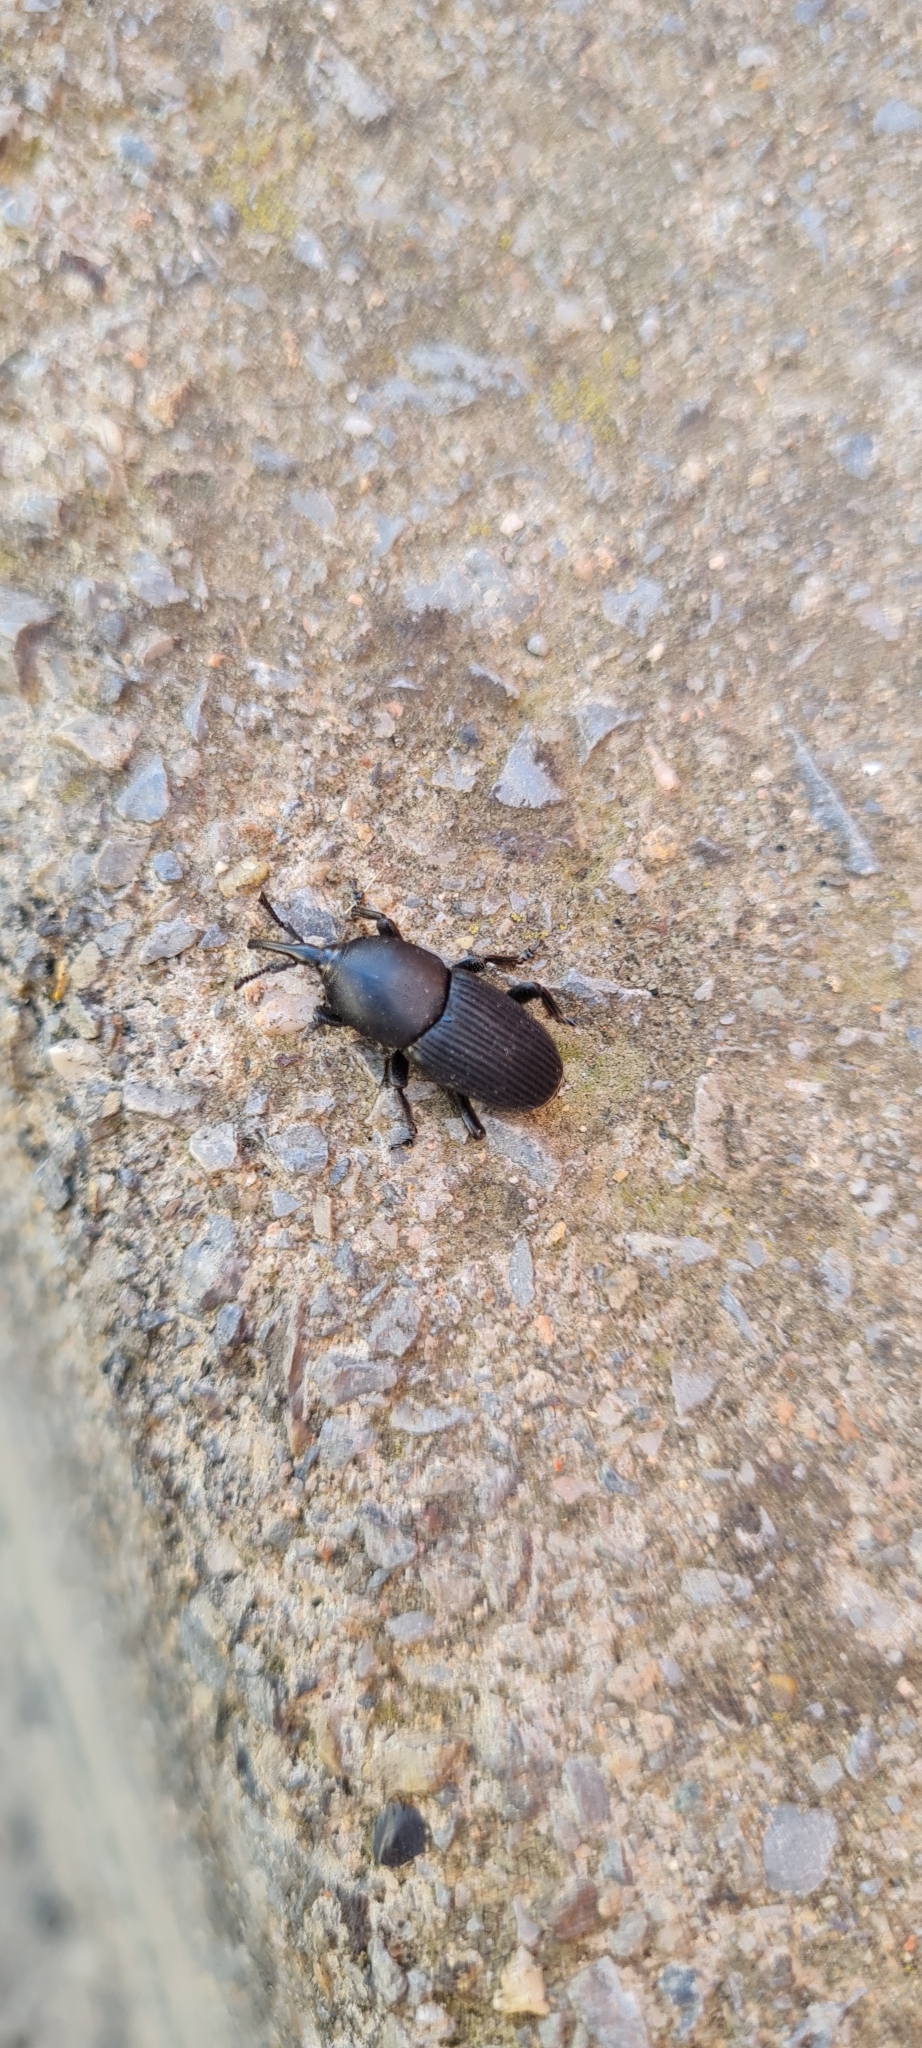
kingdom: Animalia
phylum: Arthropoda
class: Insecta
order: Coleoptera
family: Dryophthoridae
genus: Scyphophorus
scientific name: Scyphophorus acupunctatus
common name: Weevil
